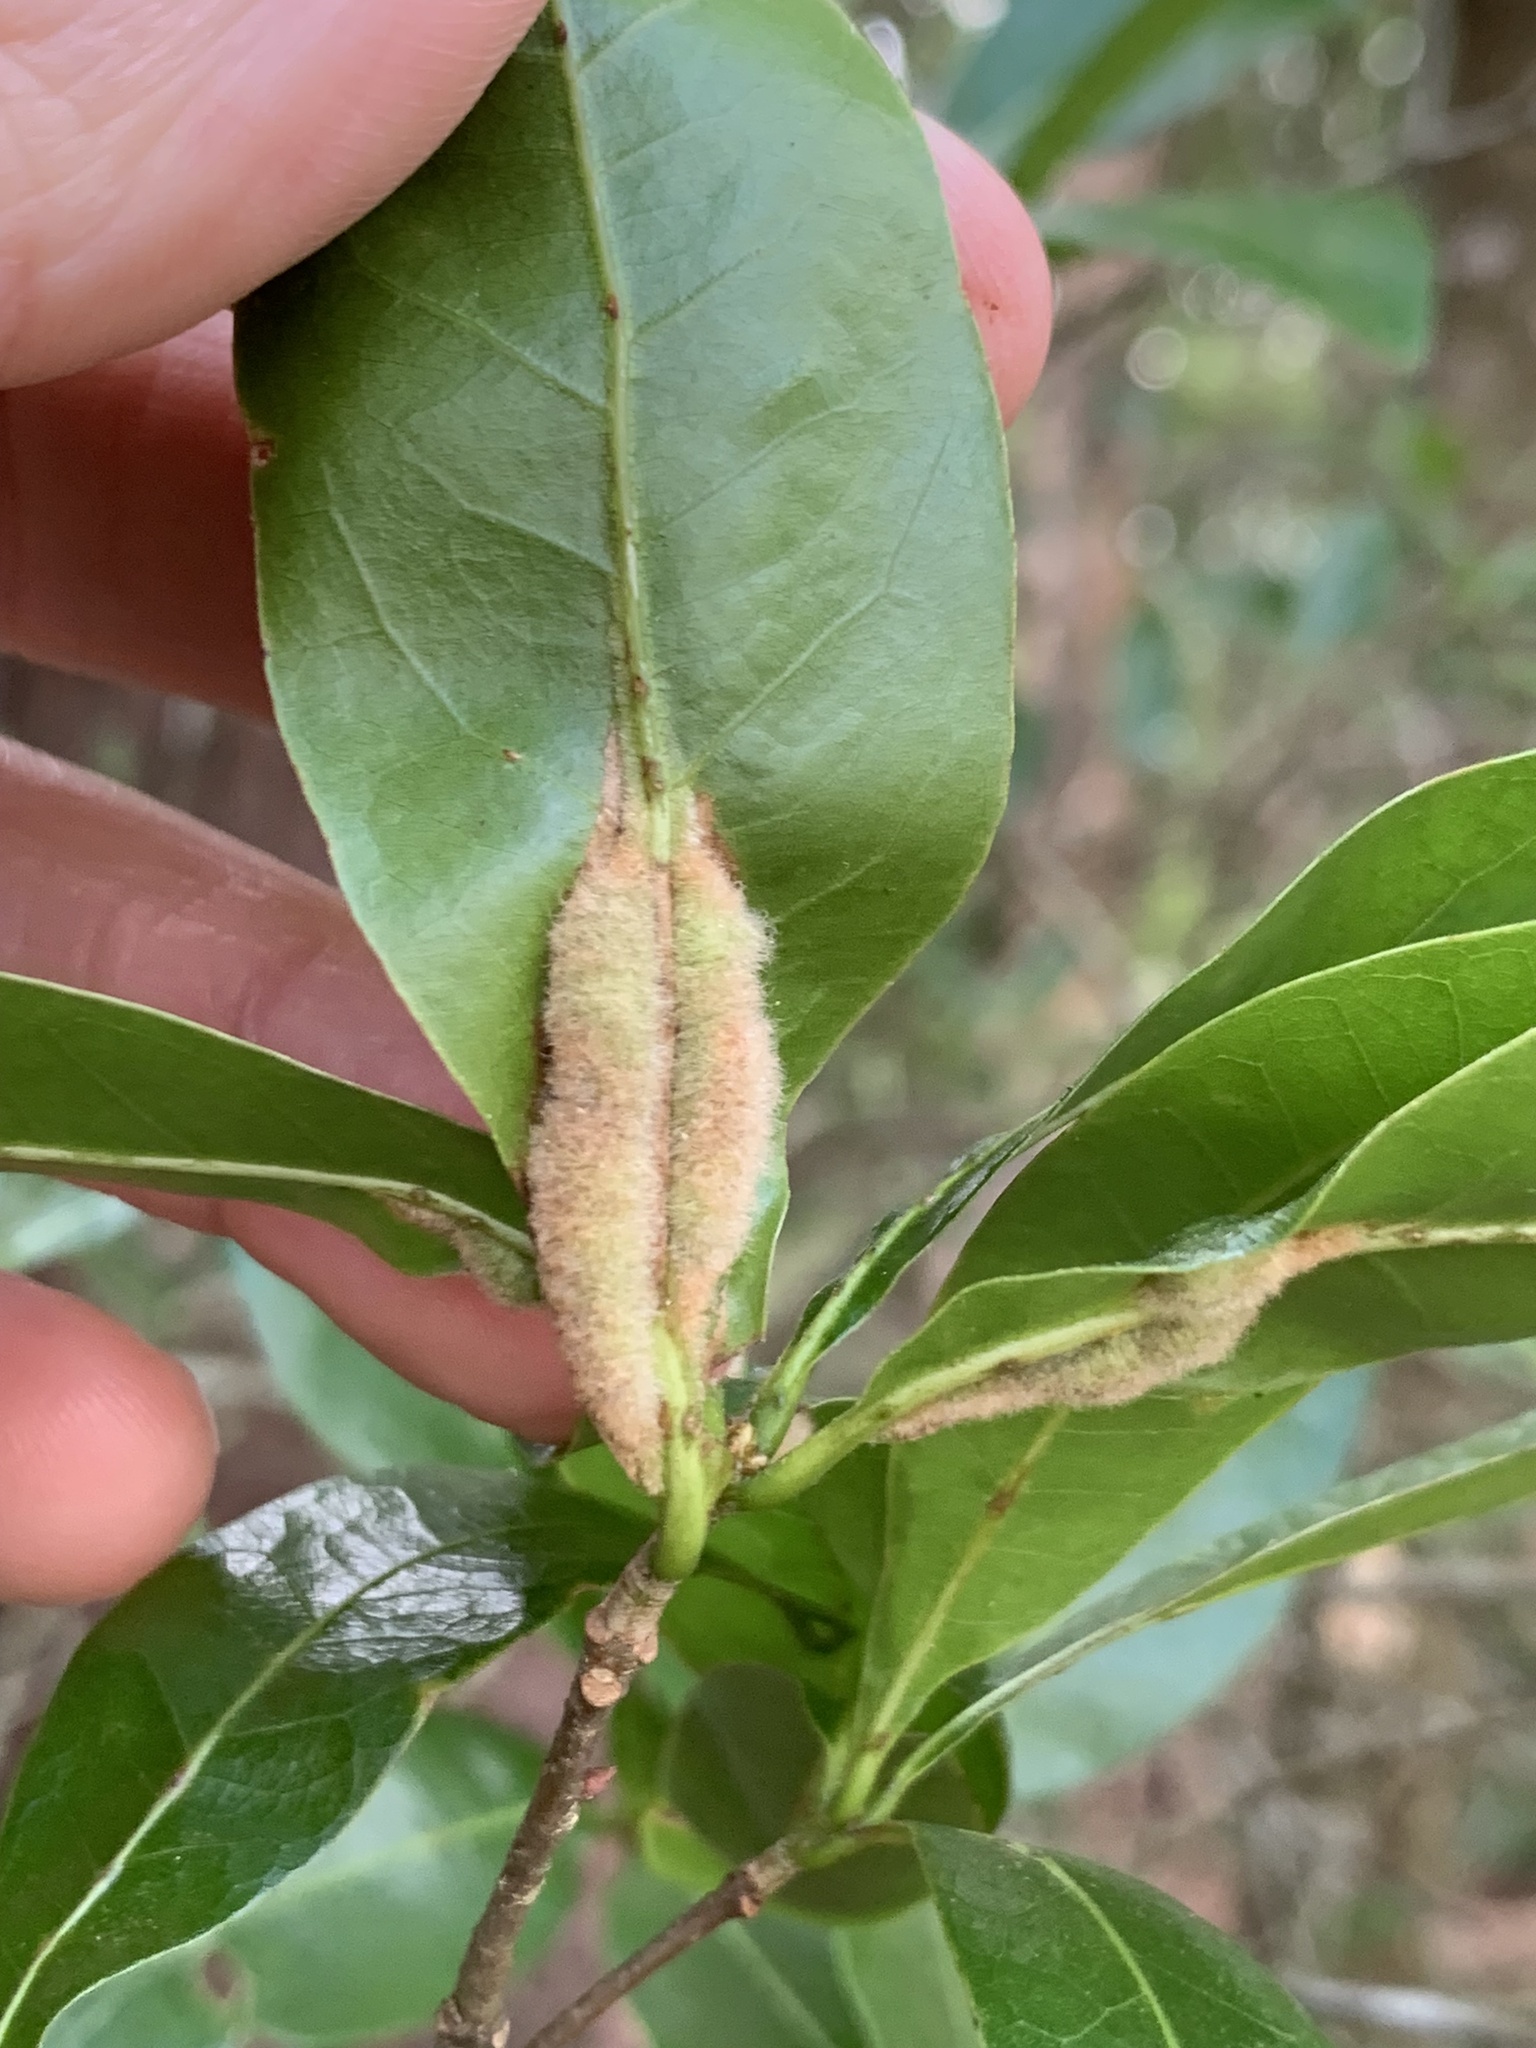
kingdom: Animalia
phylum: Arthropoda
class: Insecta
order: Diptera
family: Cecidomyiidae
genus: Macrodiplosis
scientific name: Macrodiplosis niveipila
